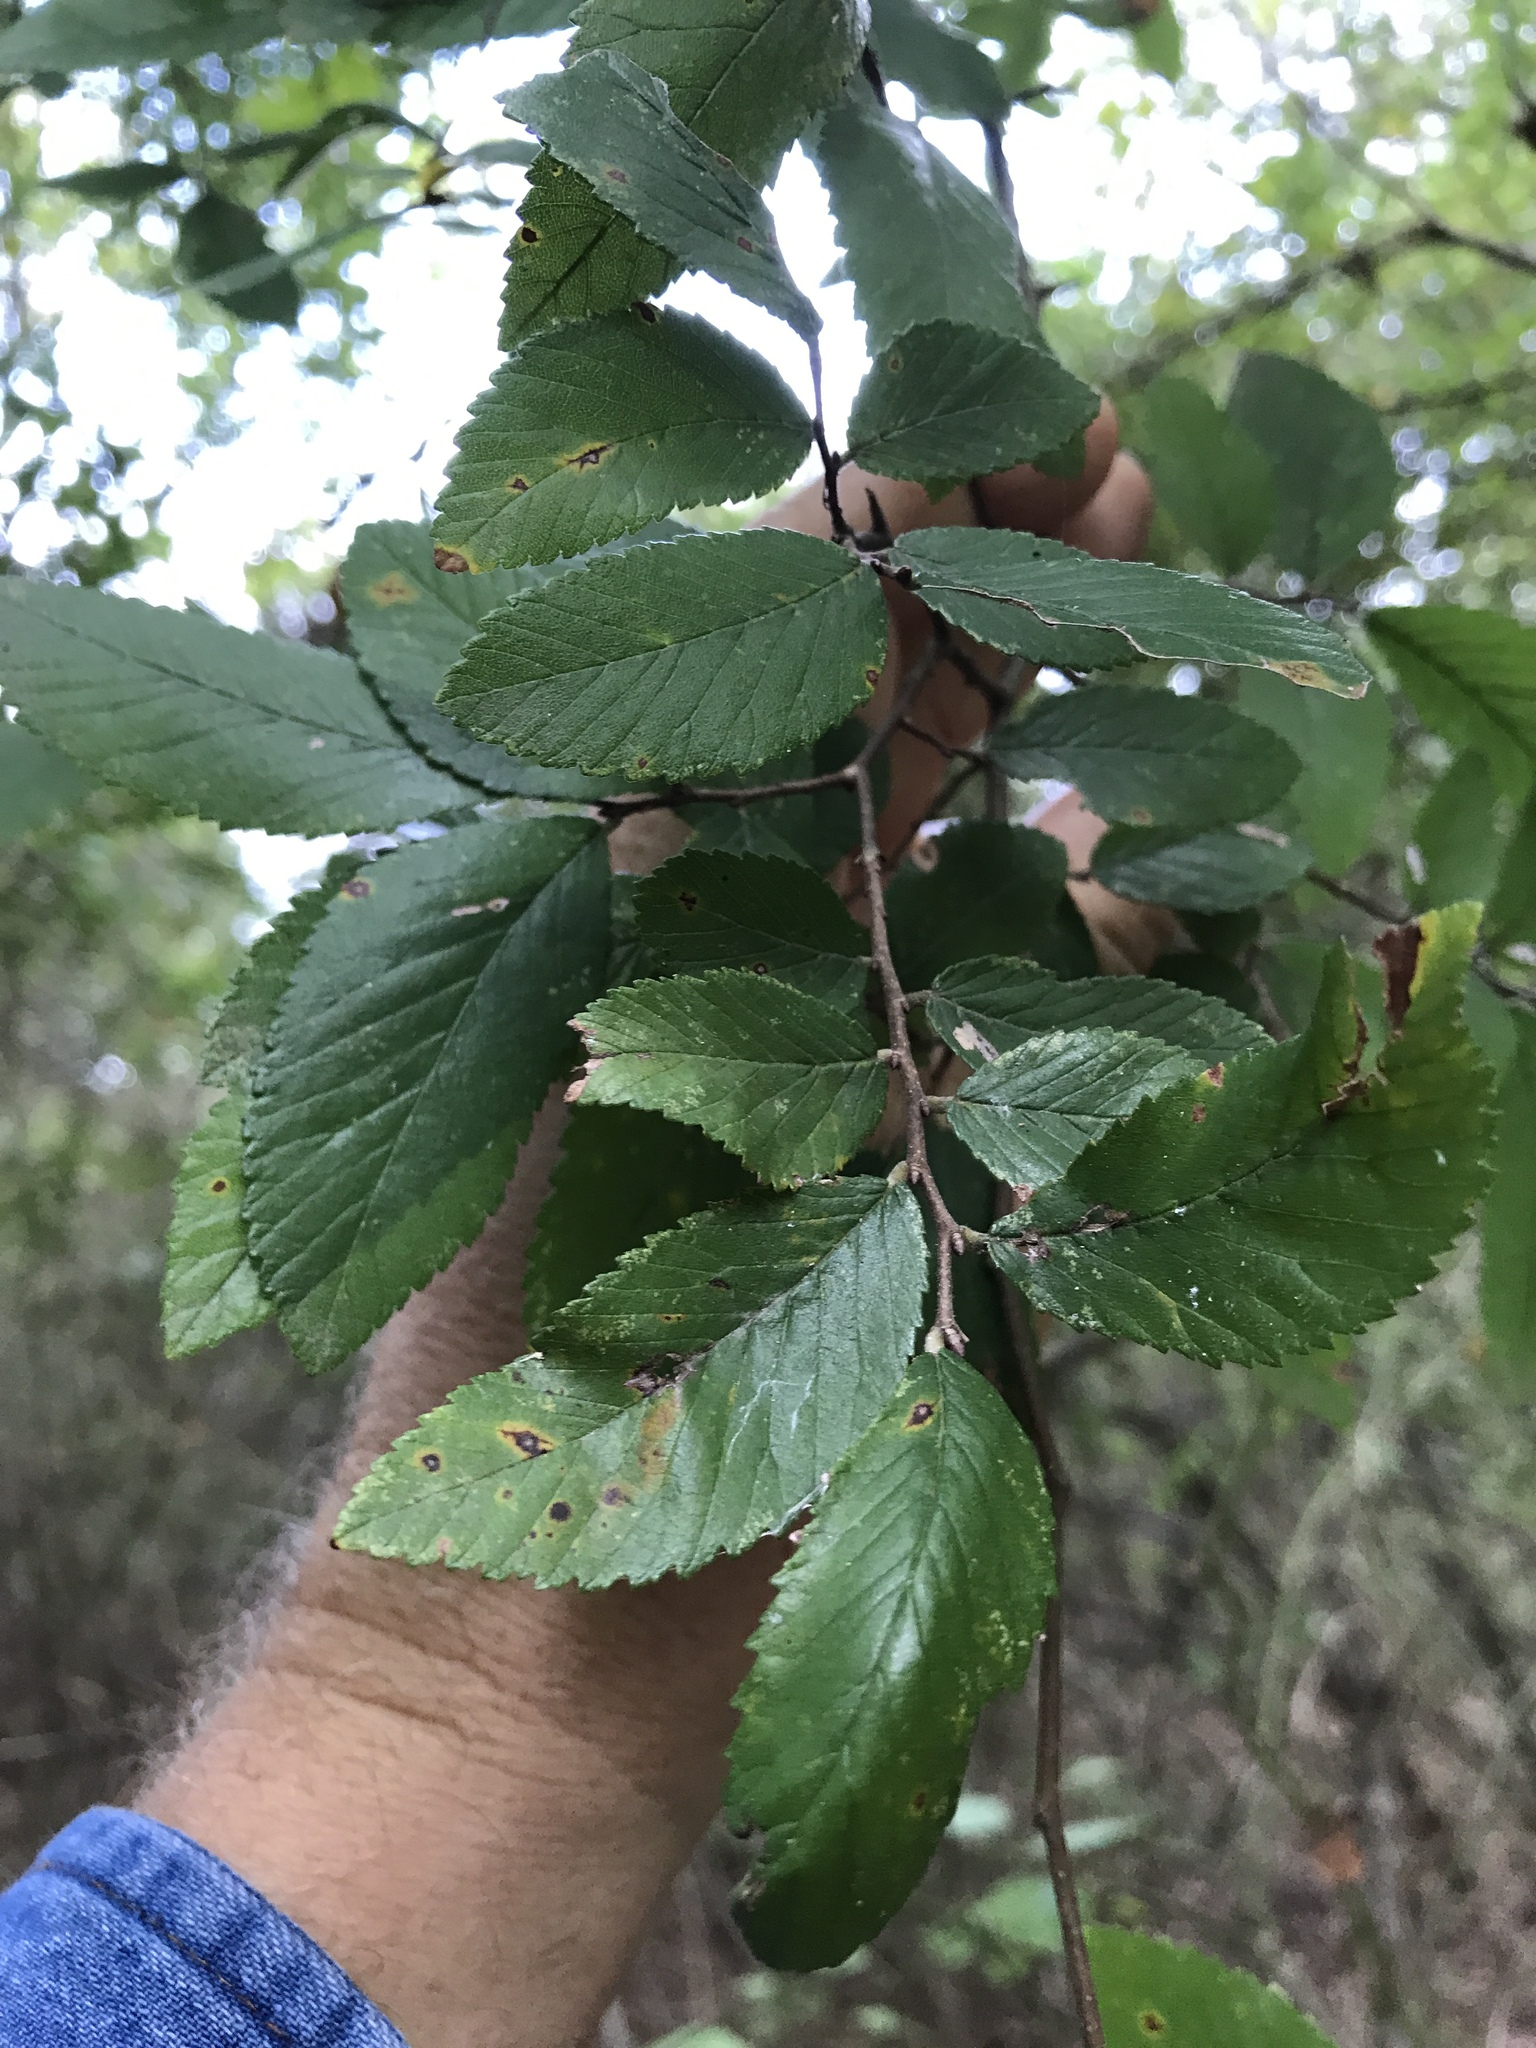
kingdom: Plantae
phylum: Tracheophyta
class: Magnoliopsida
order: Rosales
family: Ulmaceae
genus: Ulmus
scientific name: Ulmus crassifolia
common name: Basket elm
